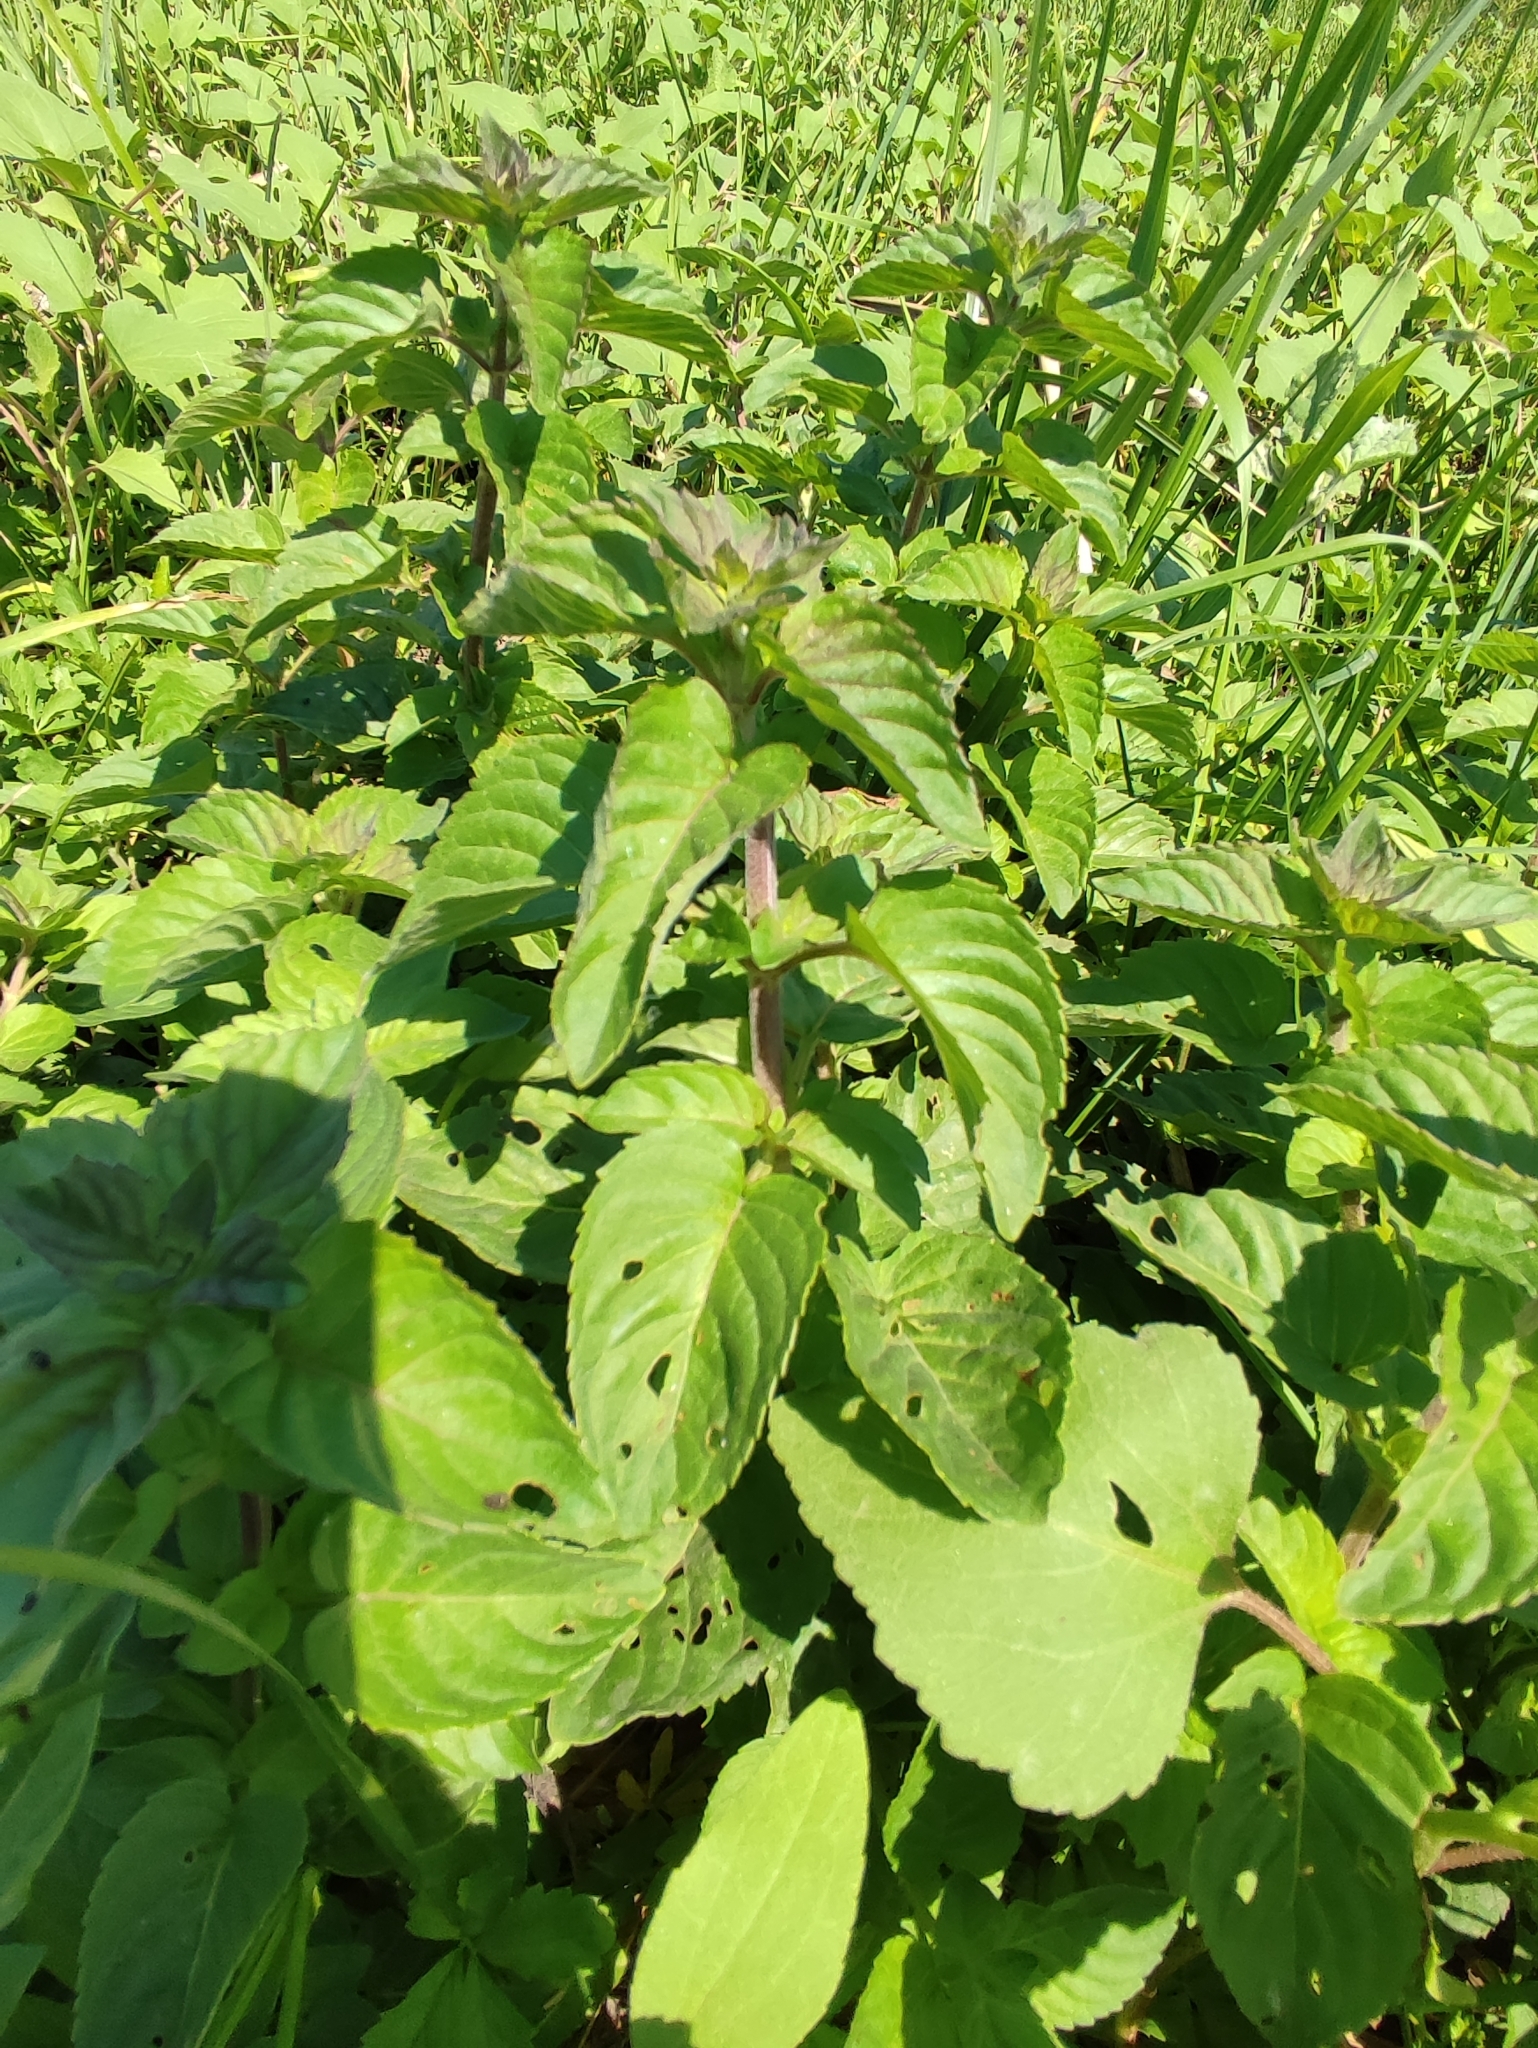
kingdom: Plantae
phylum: Tracheophyta
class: Magnoliopsida
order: Lamiales
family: Lamiaceae
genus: Mentha
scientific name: Mentha aquatica
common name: Water mint
